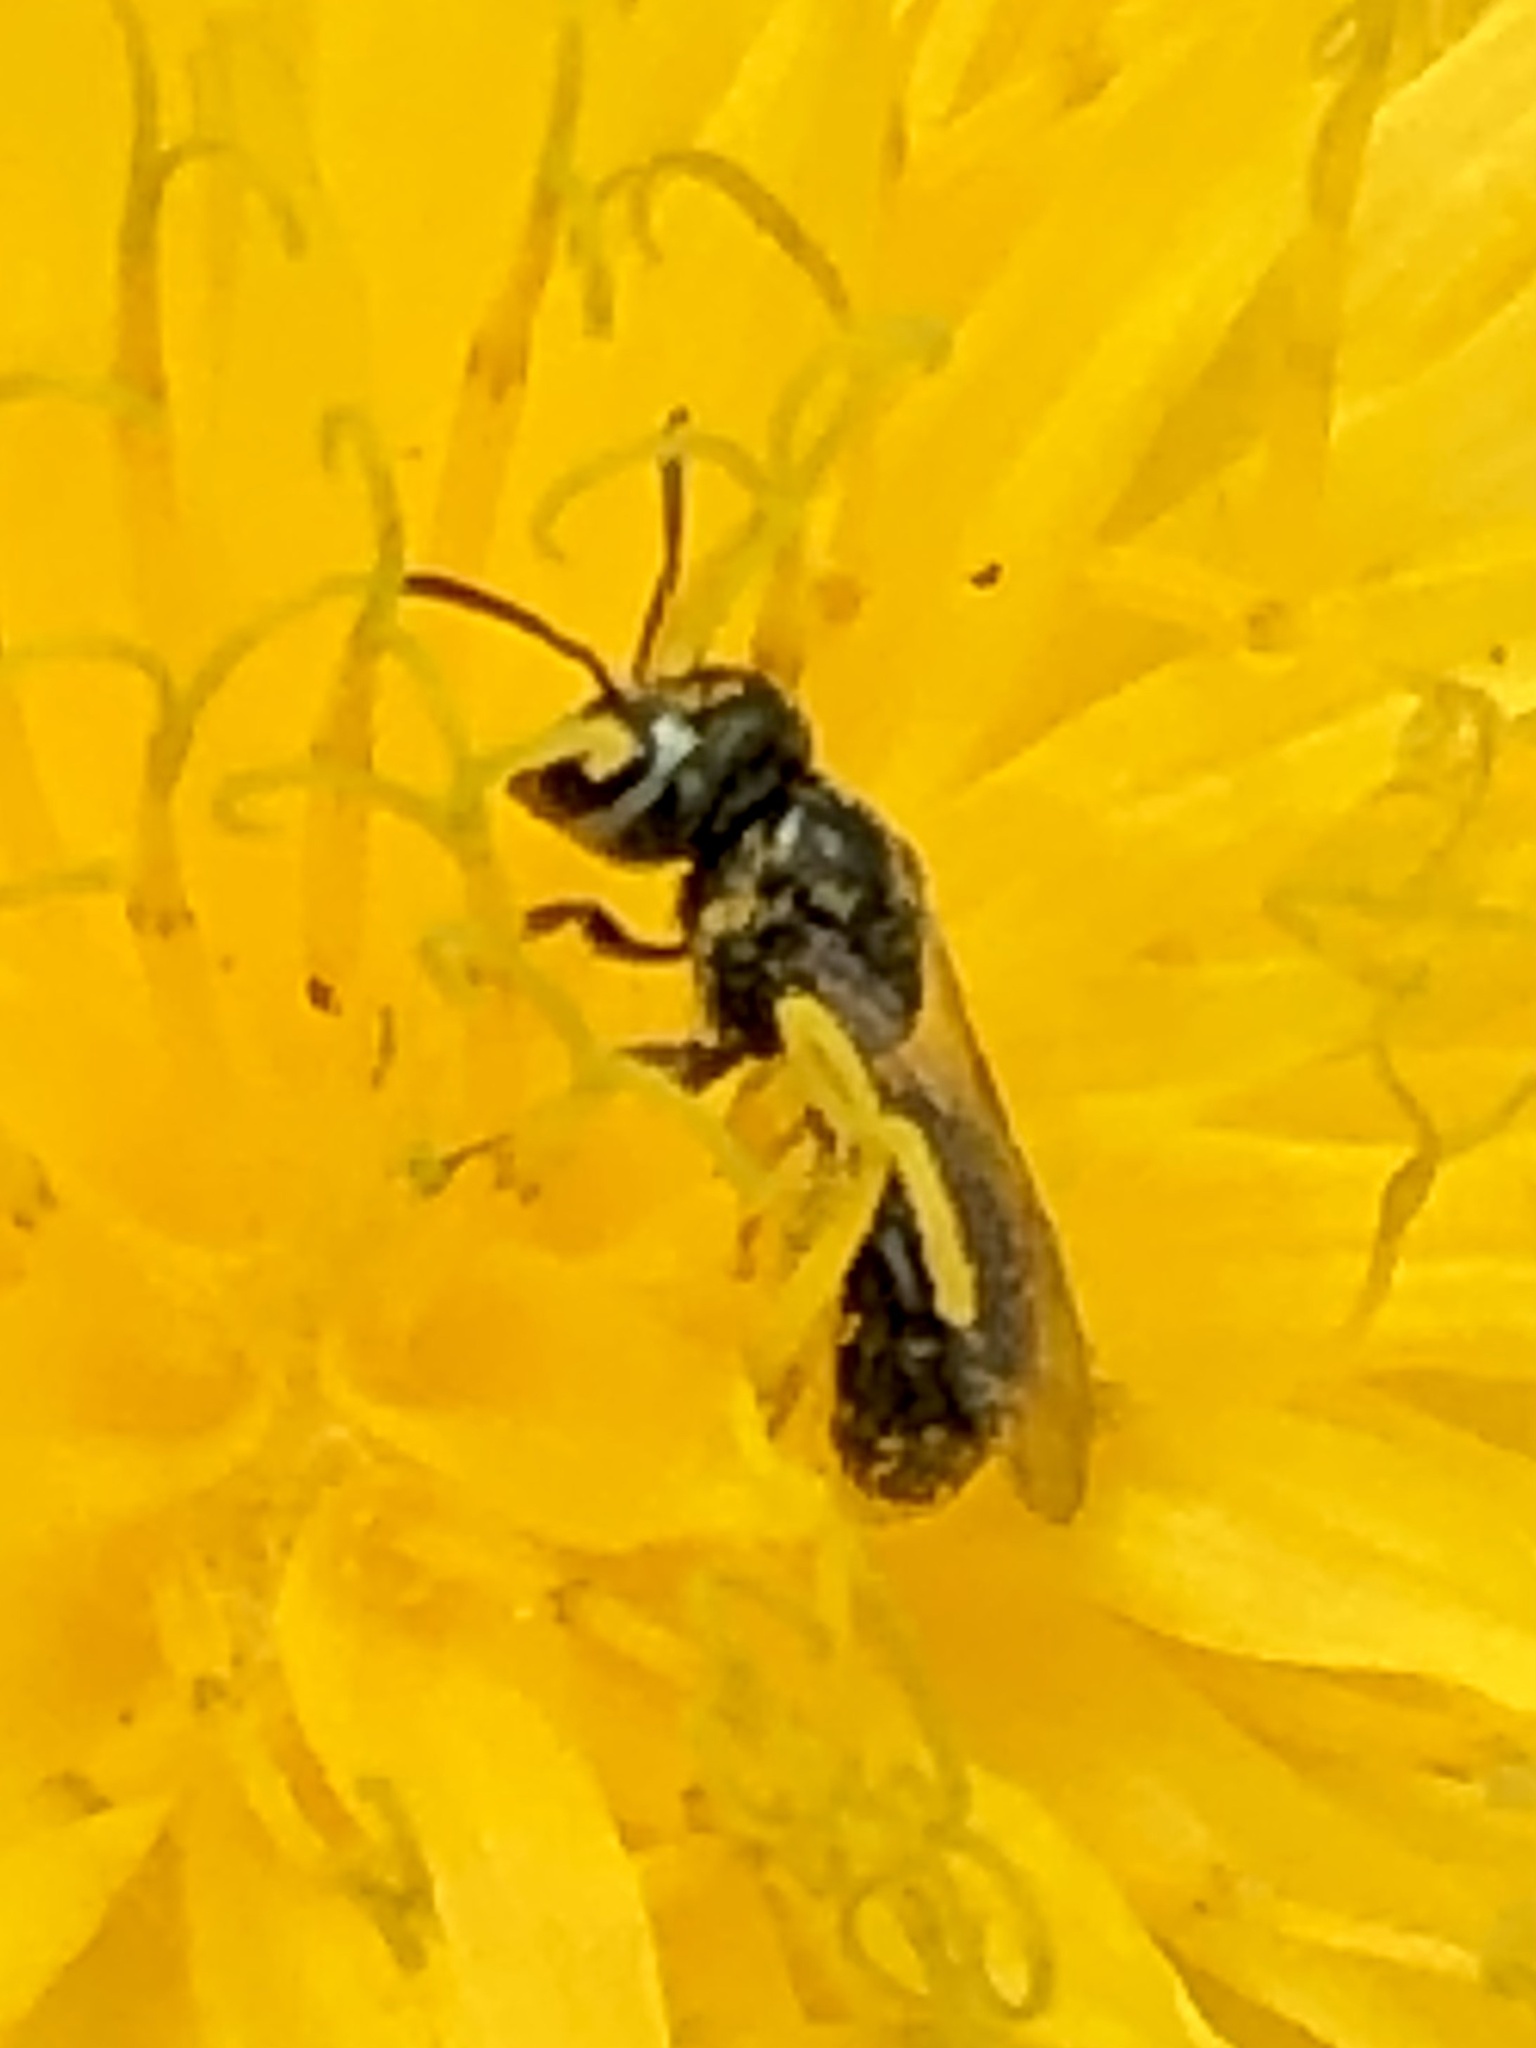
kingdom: Animalia
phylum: Arthropoda
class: Insecta
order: Hymenoptera
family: Halictidae
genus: Dialictus
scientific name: Dialictus
